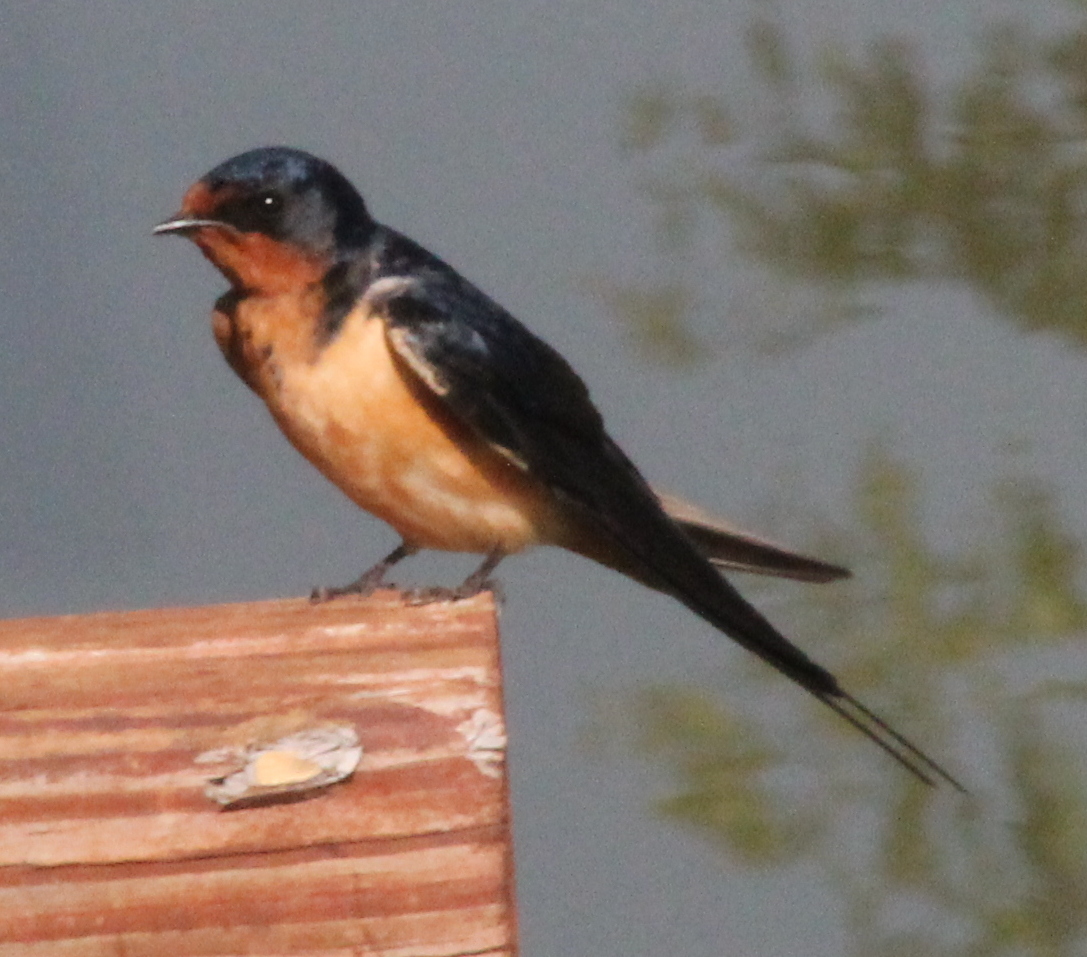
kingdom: Animalia
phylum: Chordata
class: Aves
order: Passeriformes
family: Hirundinidae
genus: Hirundo
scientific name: Hirundo rustica
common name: Barn swallow
